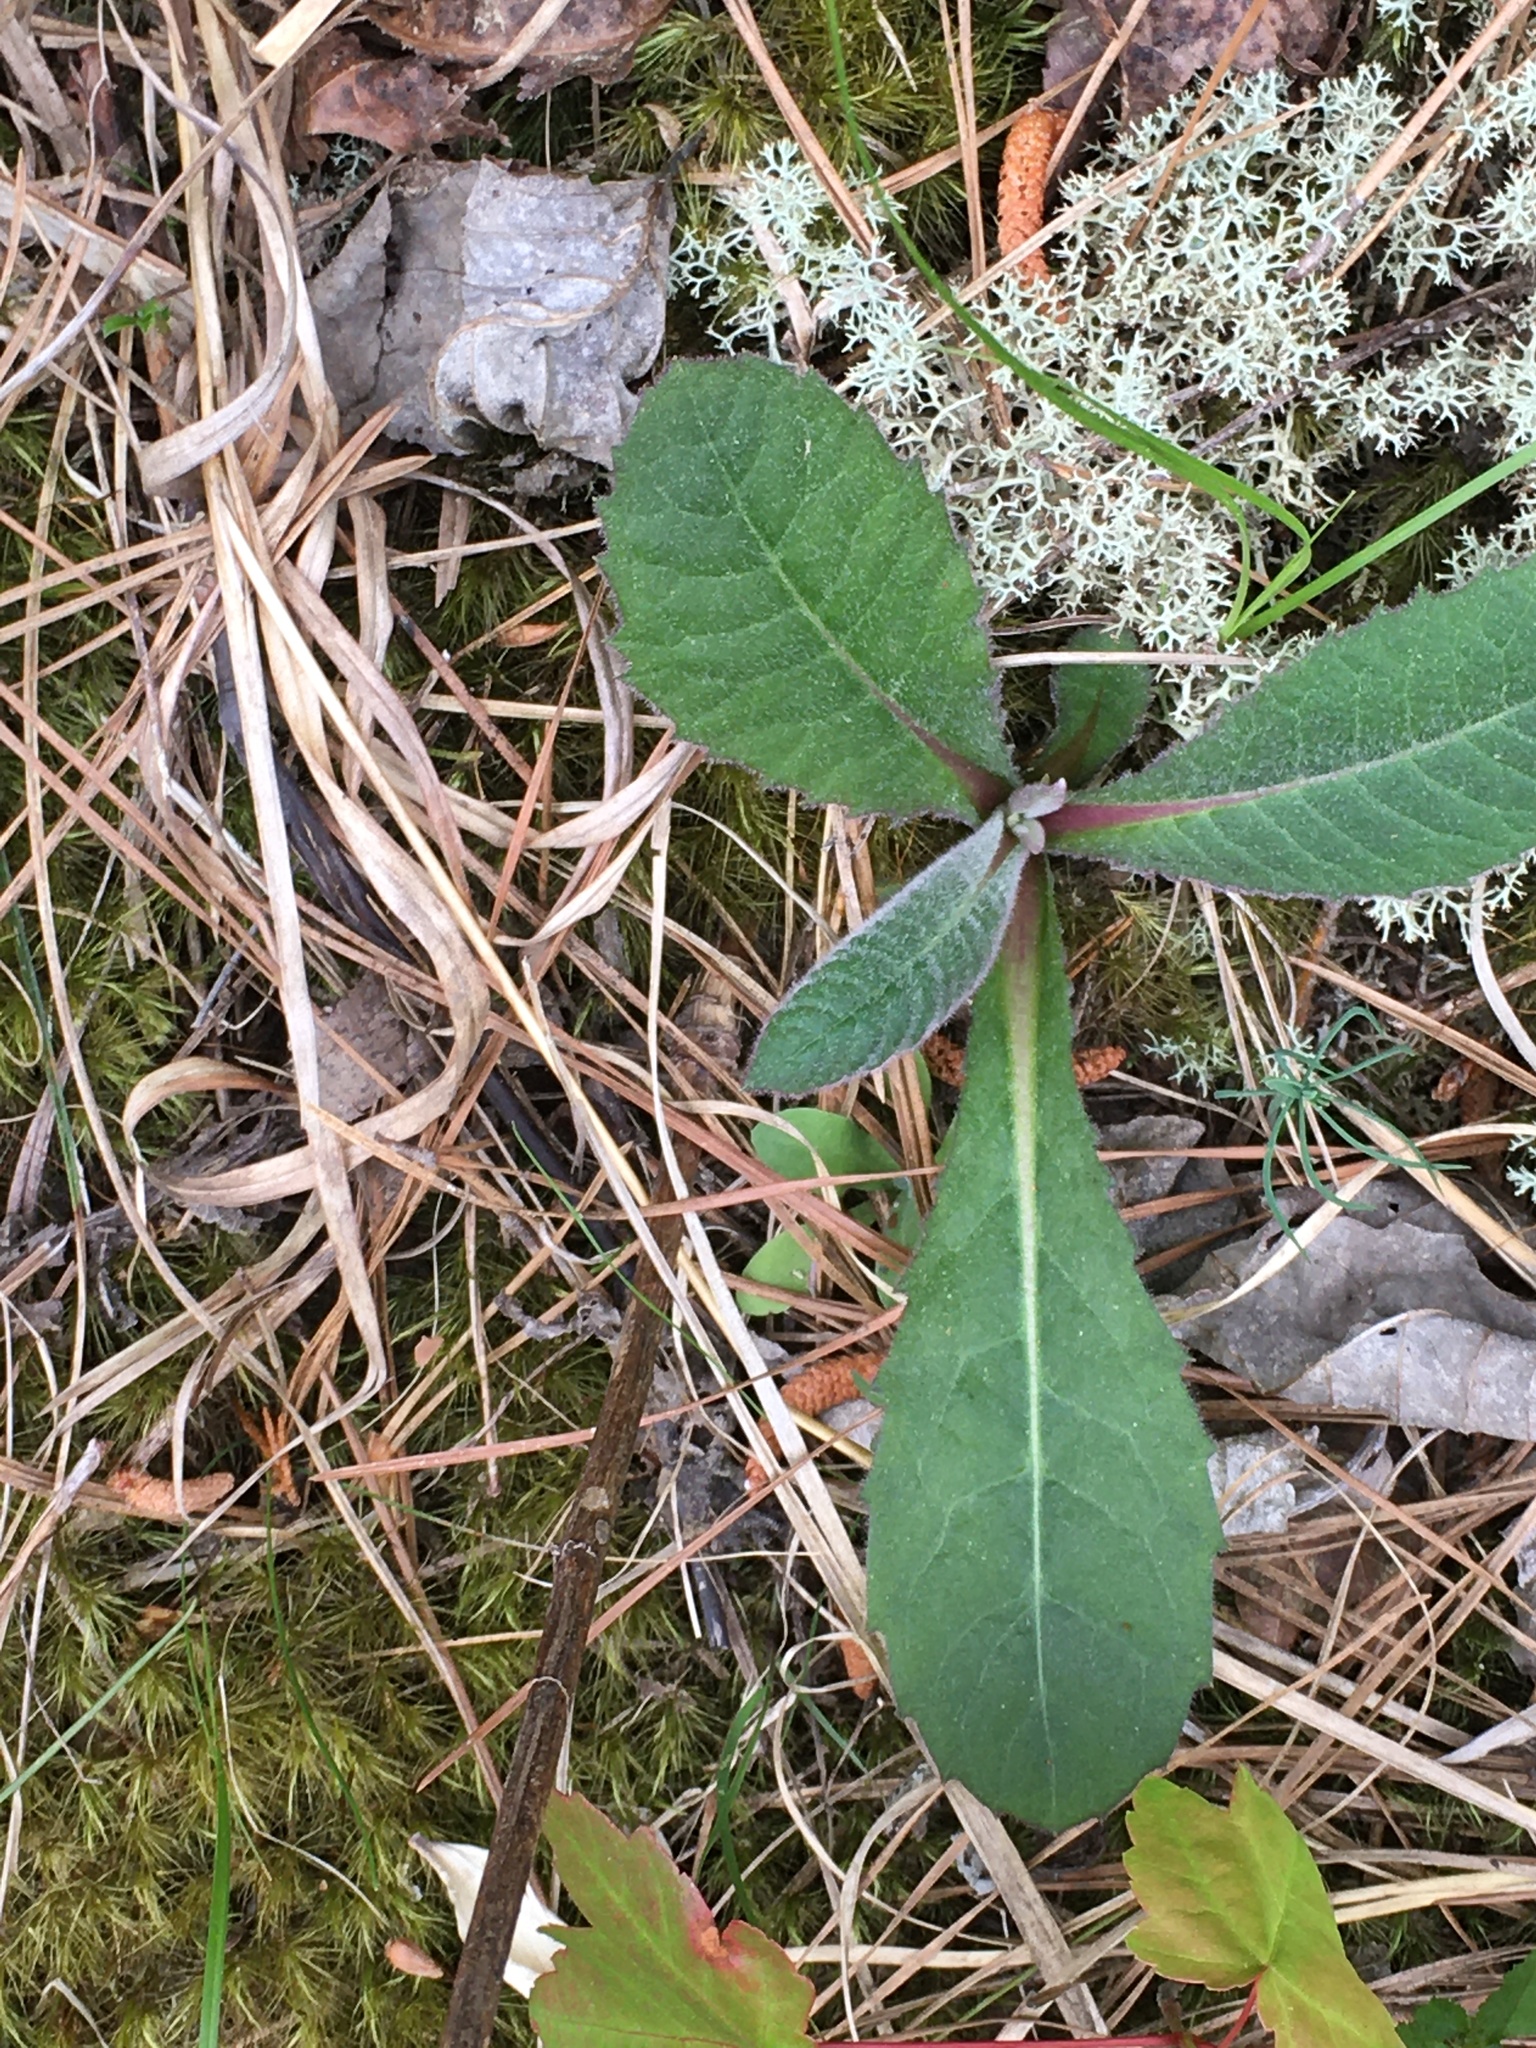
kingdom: Plantae
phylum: Tracheophyta
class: Magnoliopsida
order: Asterales
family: Asteraceae
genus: Vernonia
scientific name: Vernonia acaulis
